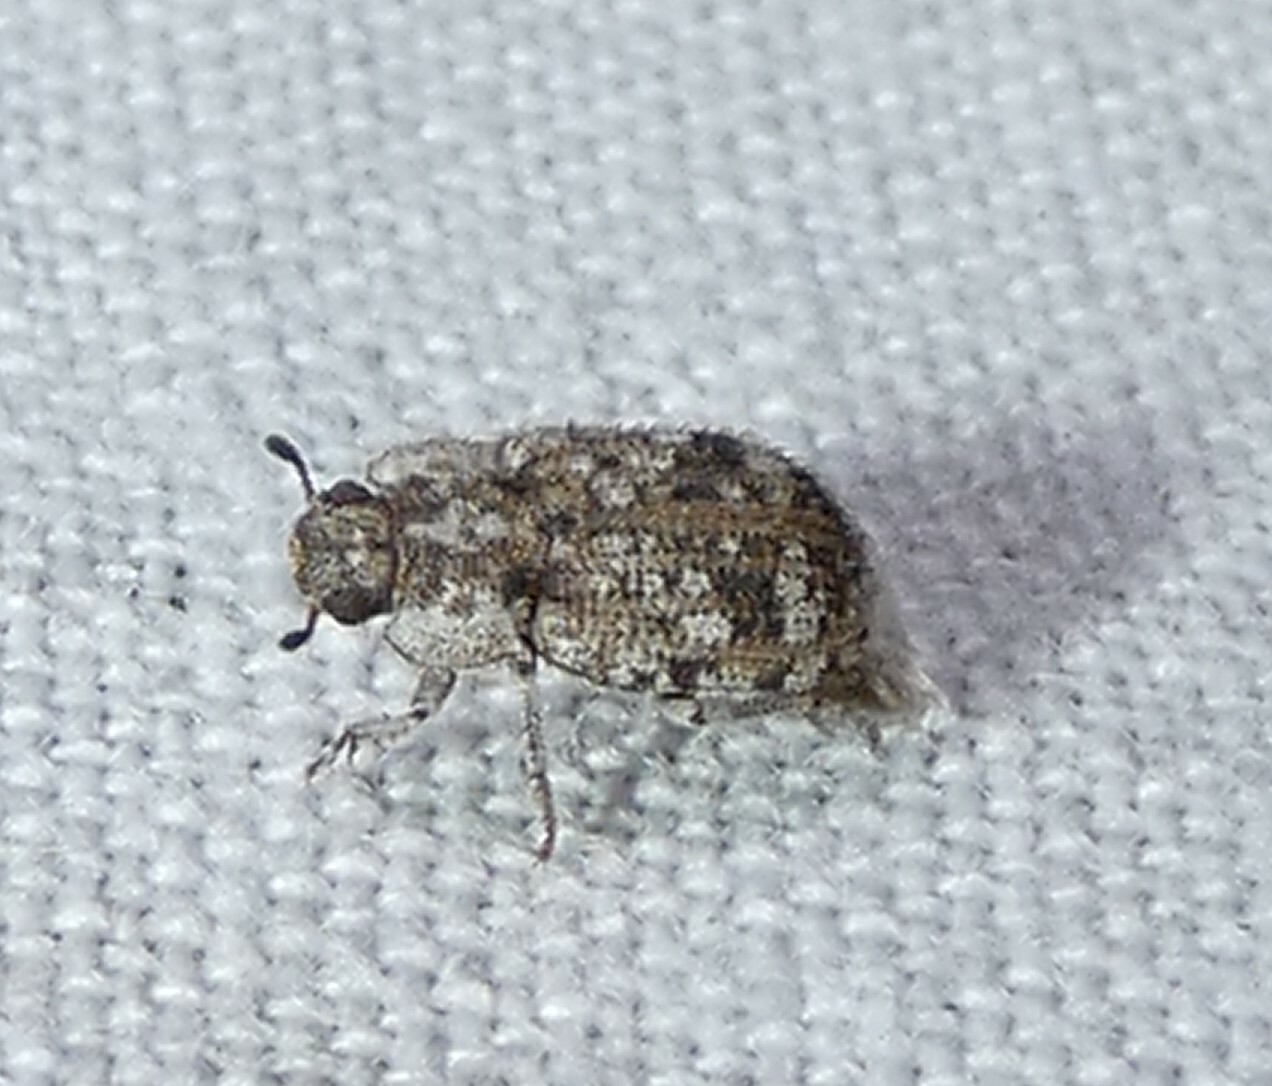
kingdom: Animalia
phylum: Arthropoda
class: Insecta
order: Coleoptera
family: Tenebrionidae
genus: Leichenum
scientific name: Leichenum canaliculatum
